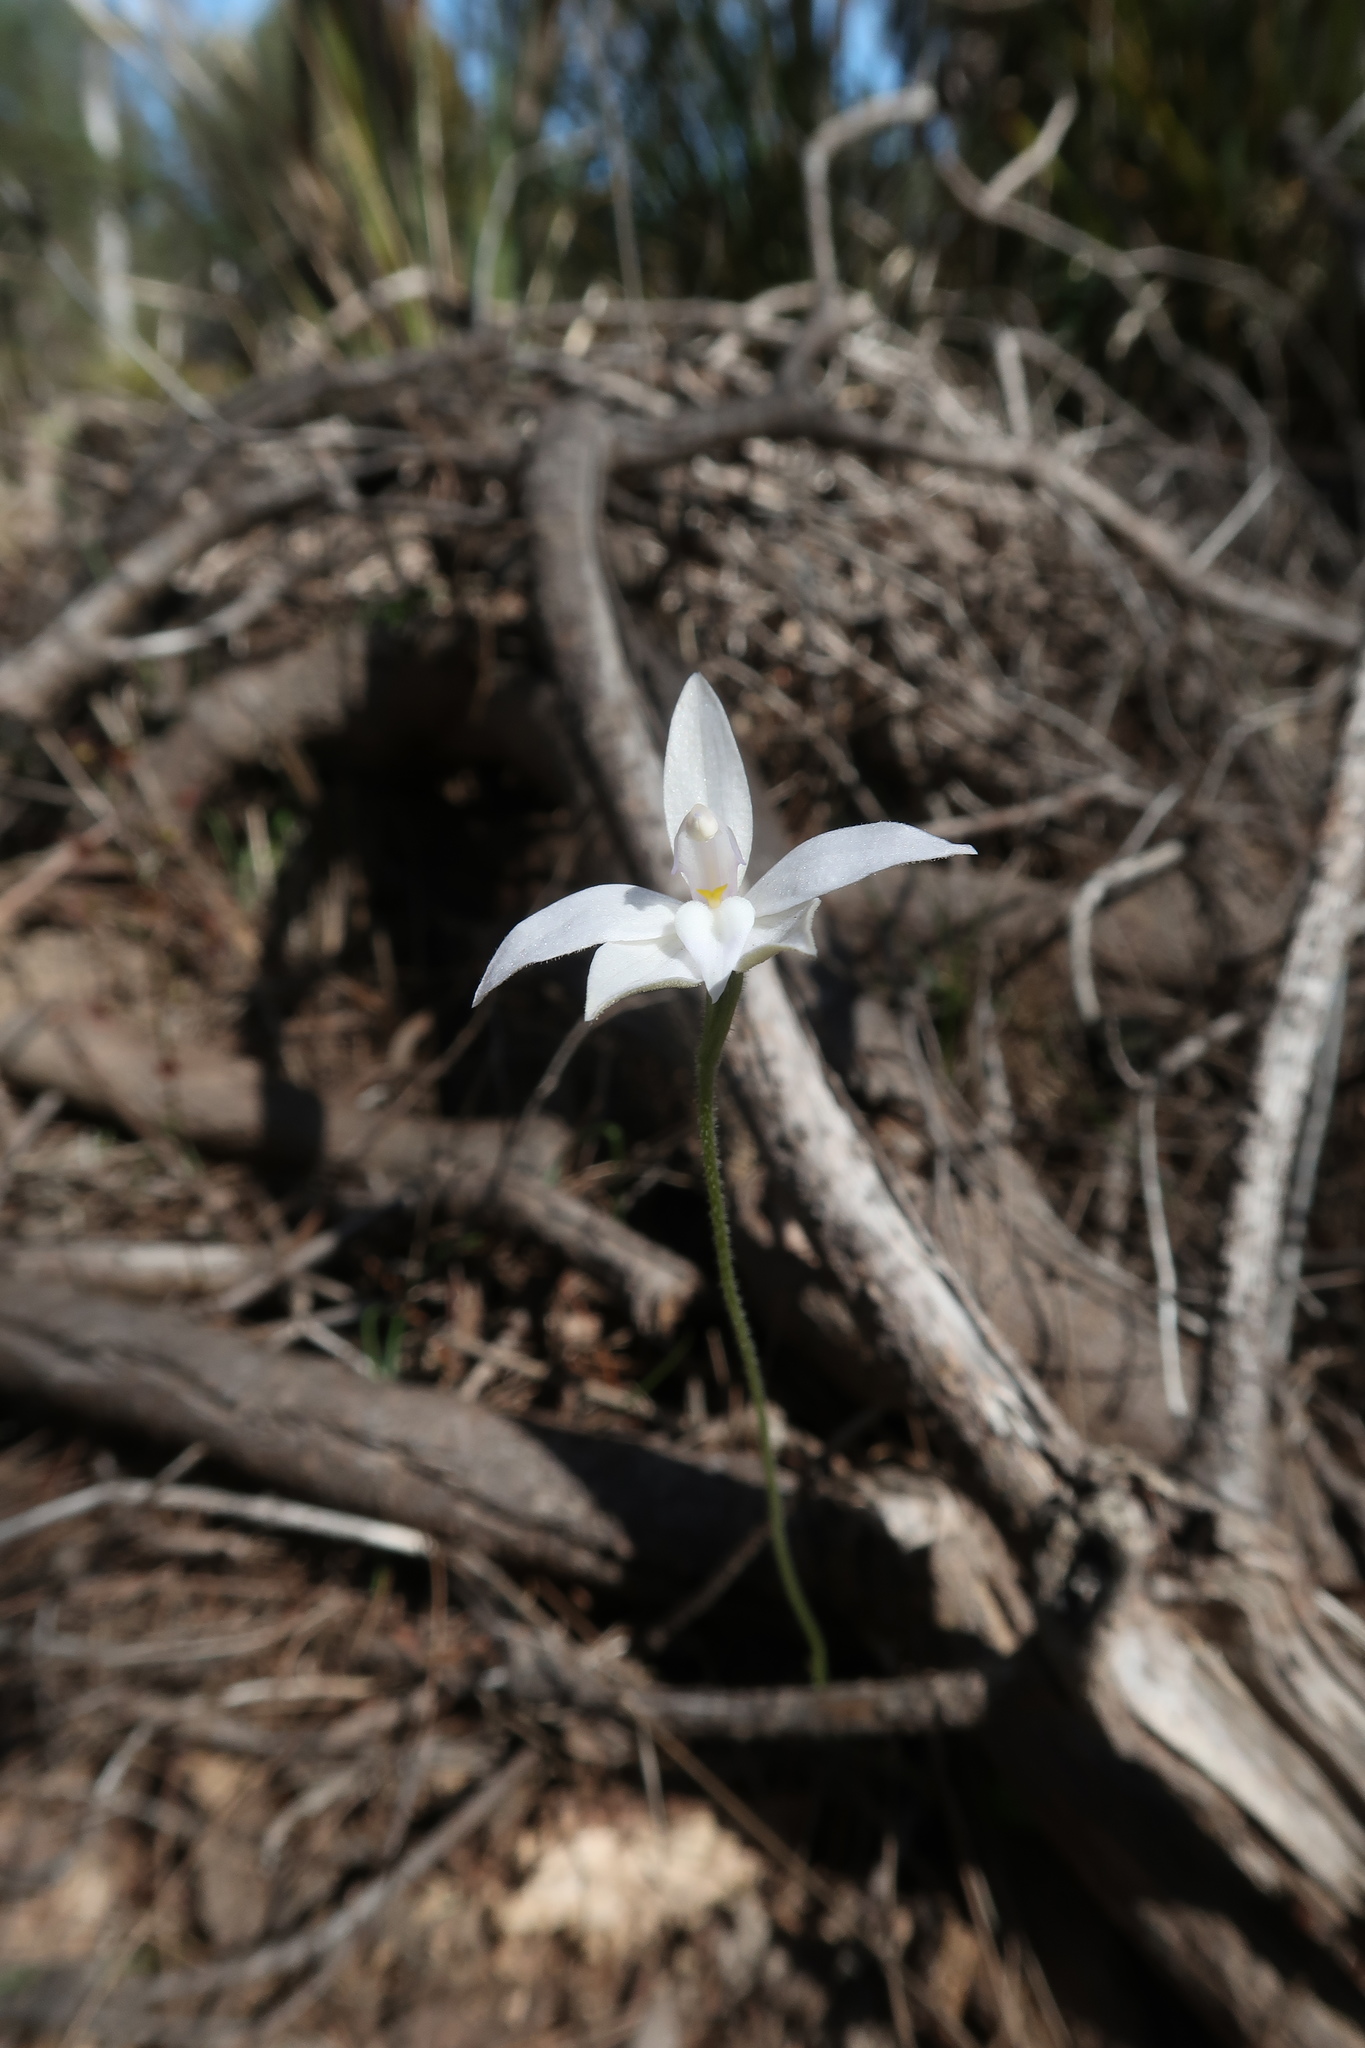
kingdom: Plantae
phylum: Tracheophyta
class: Liliopsida
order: Asparagales
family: Orchidaceae
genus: Caladenia
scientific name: Caladenia major
